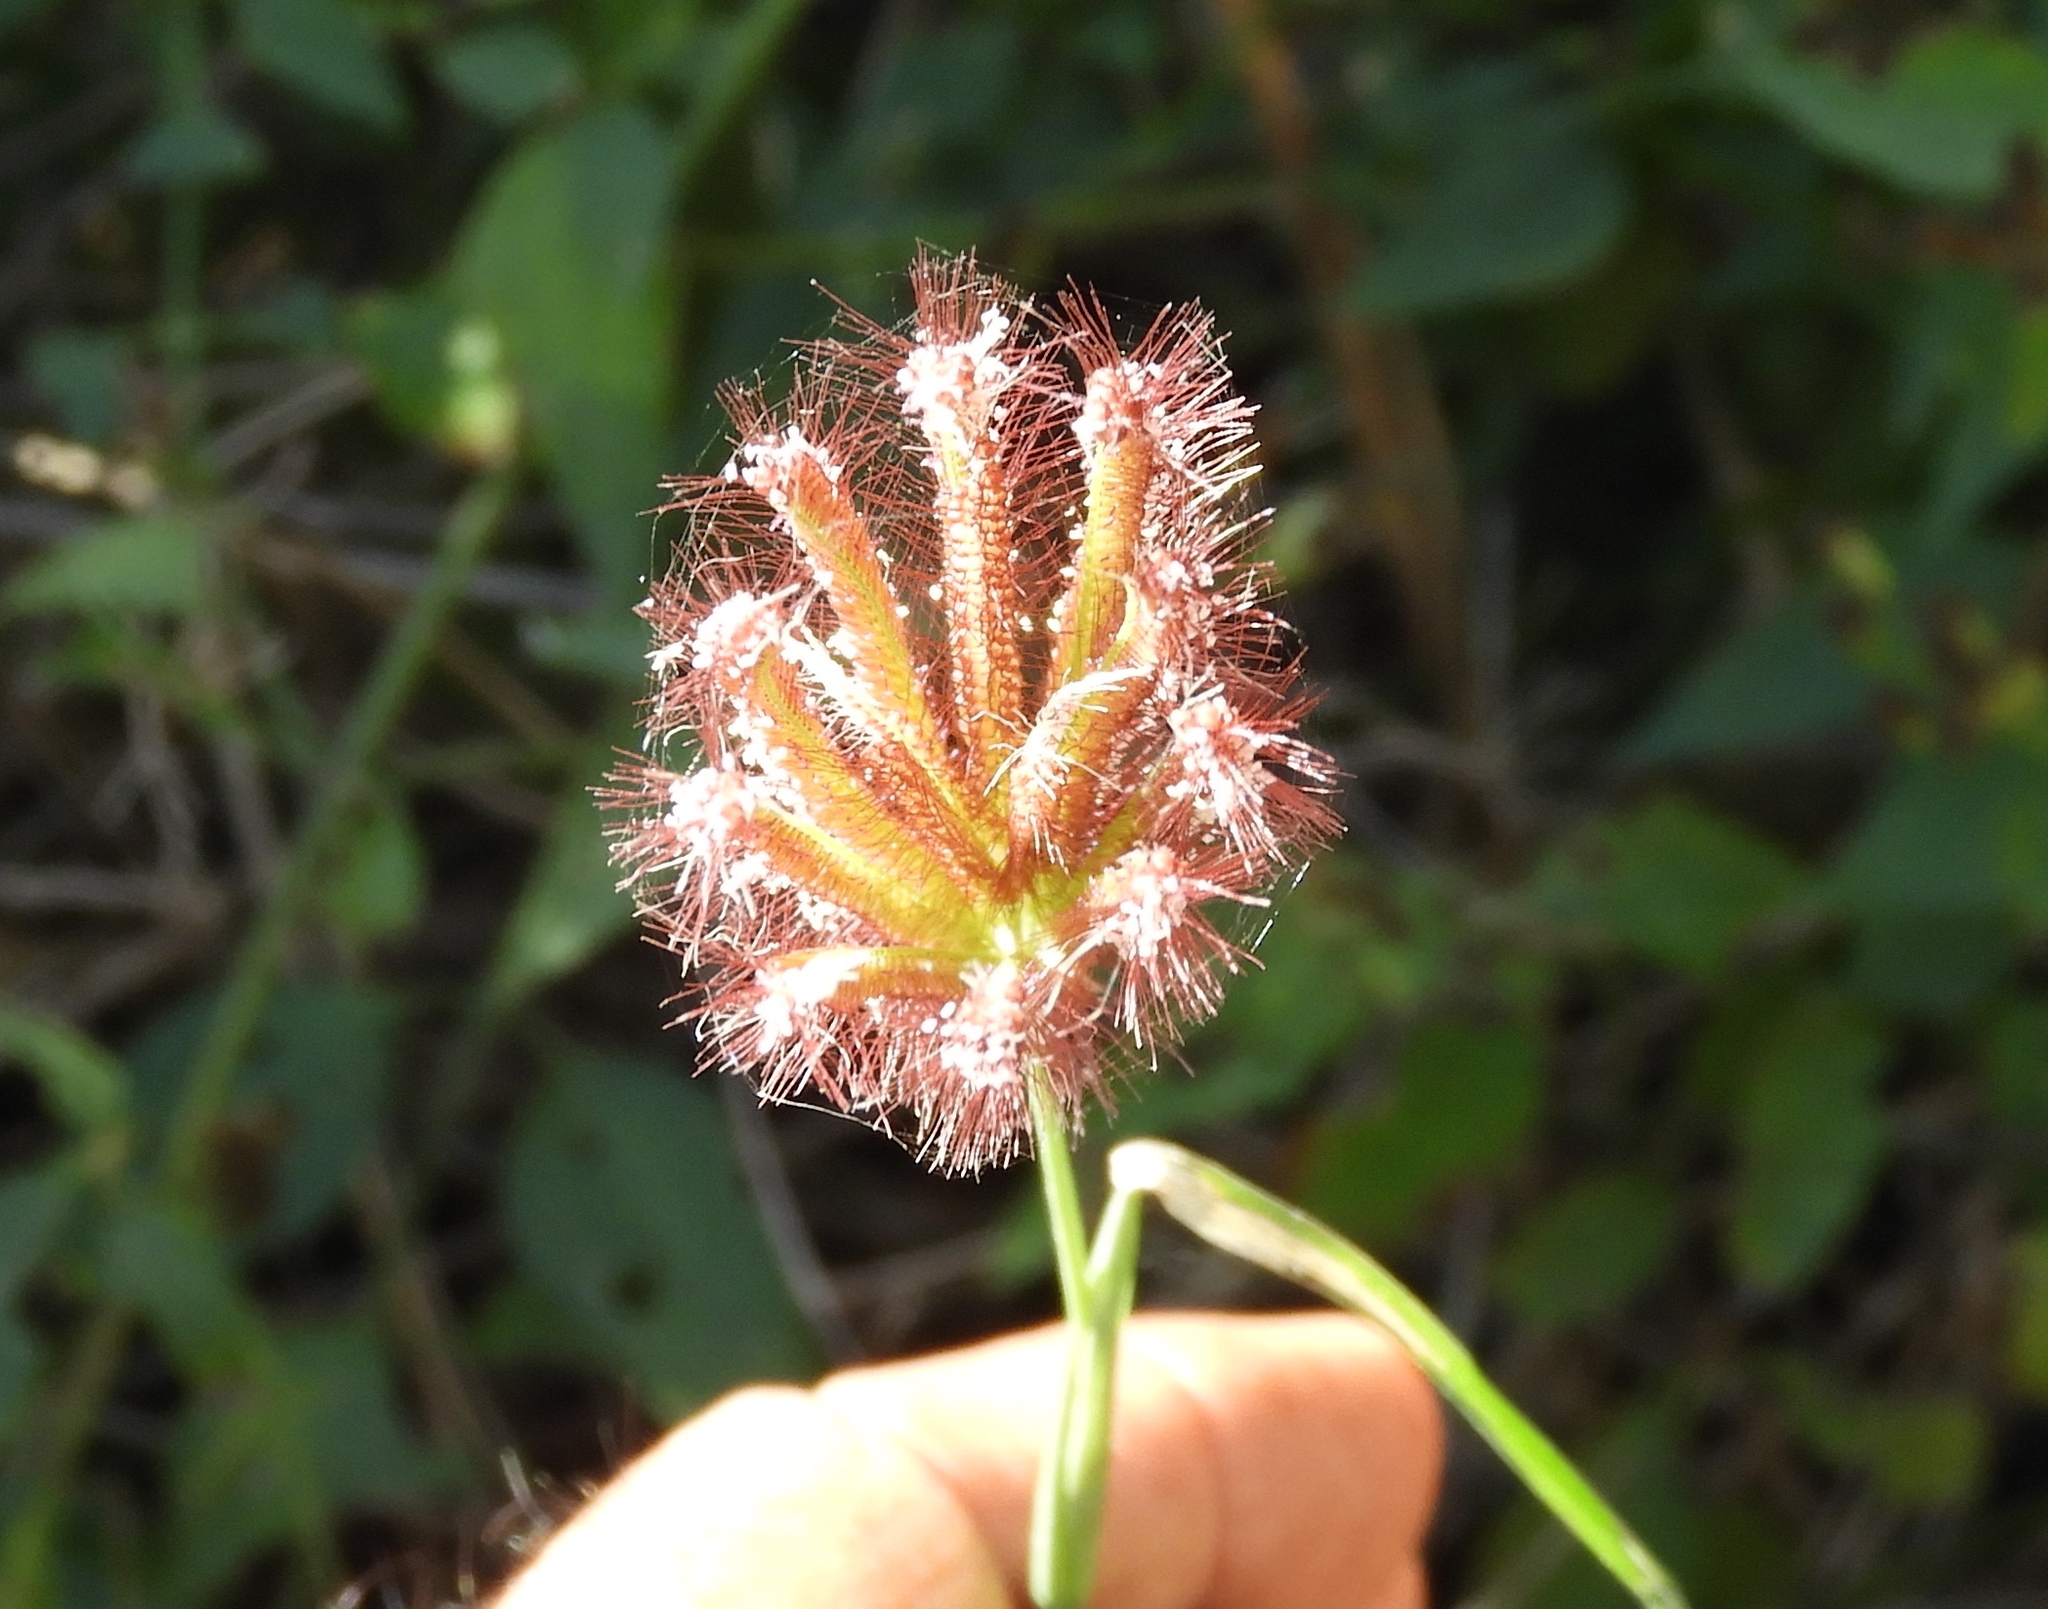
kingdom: Plantae
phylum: Tracheophyta
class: Liliopsida
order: Poales
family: Poaceae
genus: Chloris
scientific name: Chloris barbata
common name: Swollen fingergrass
